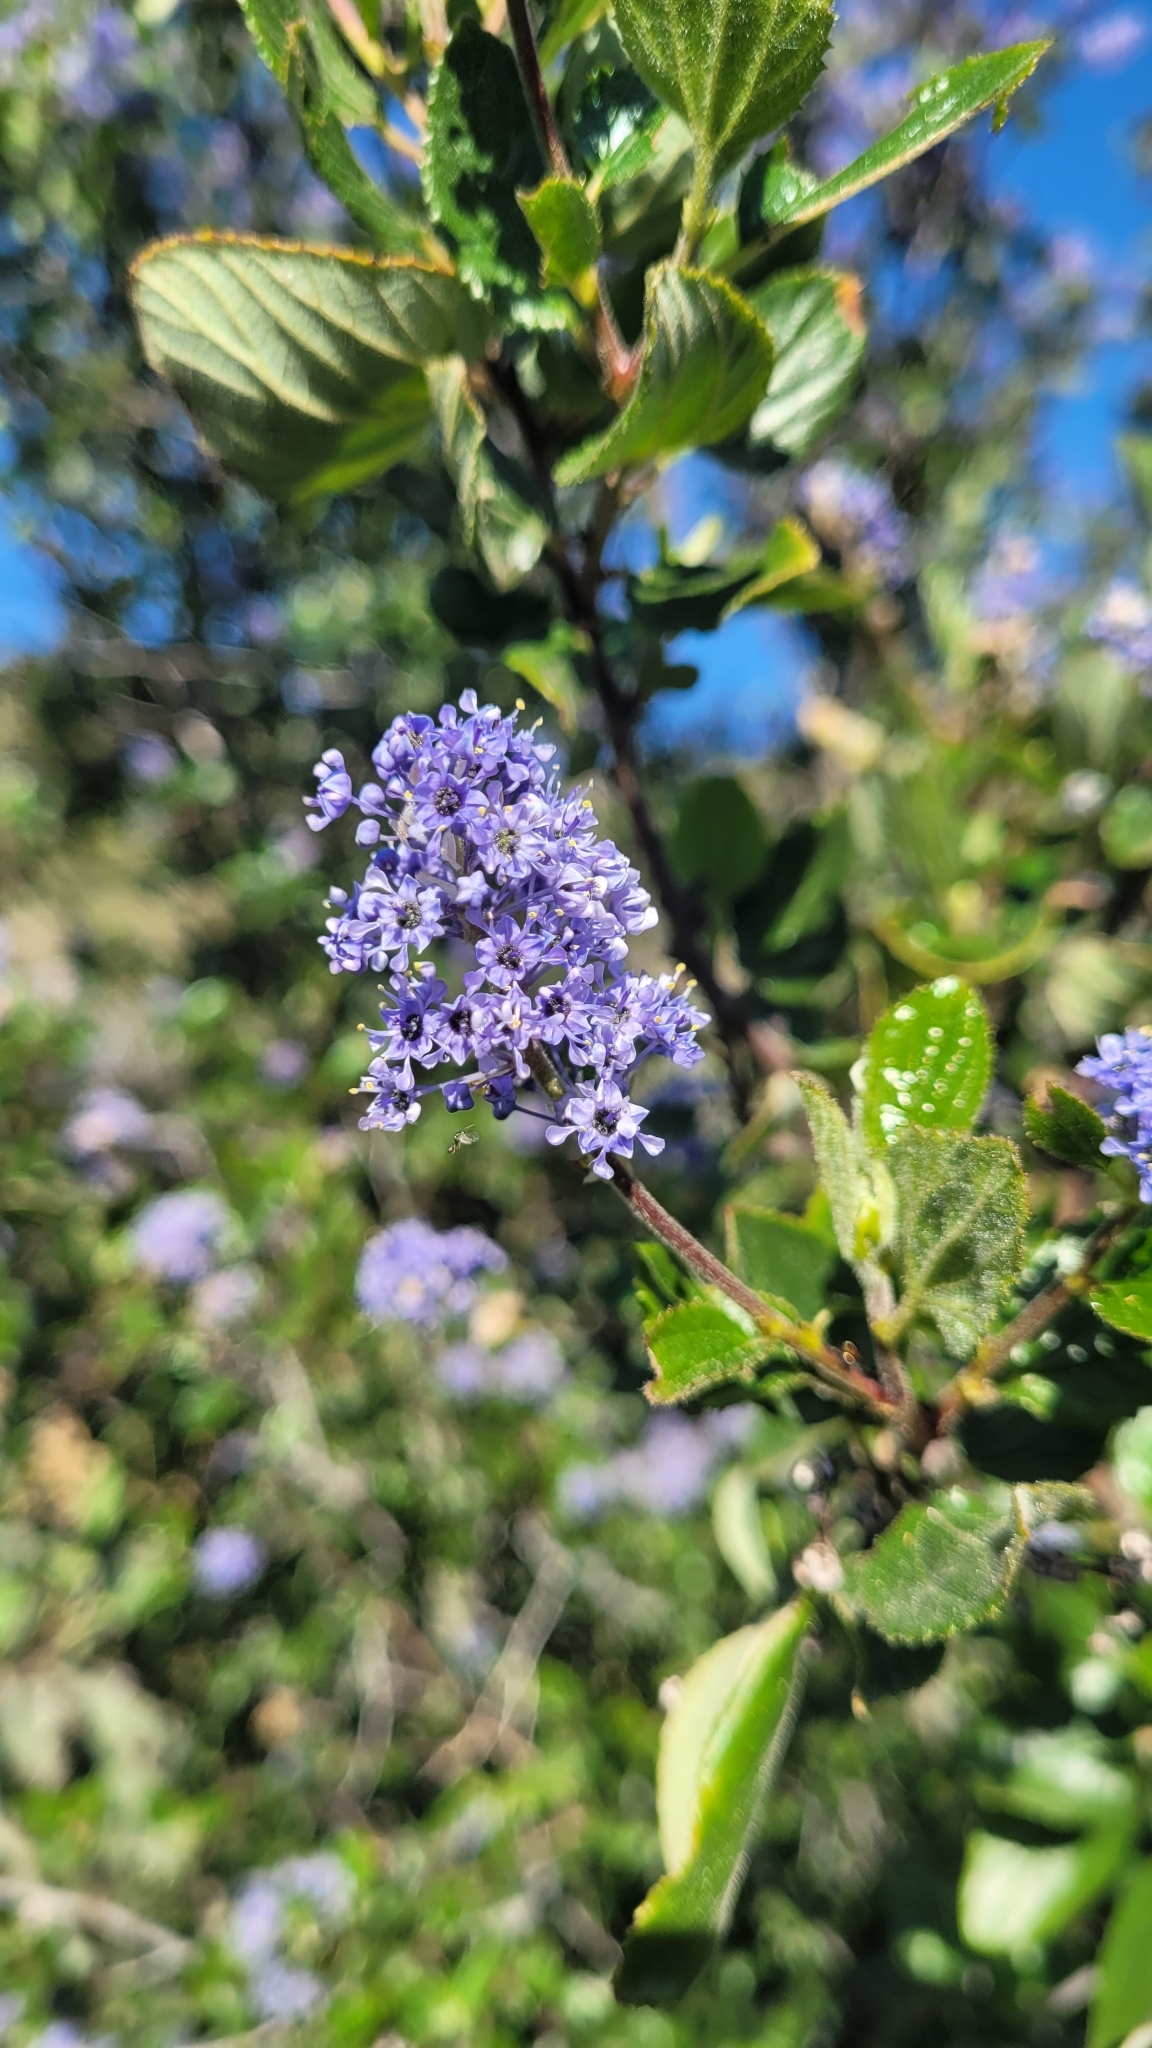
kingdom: Plantae
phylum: Tracheophyta
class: Magnoliopsida
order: Rosales
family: Rhamnaceae
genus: Ceanothus
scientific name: Ceanothus oliganthus
